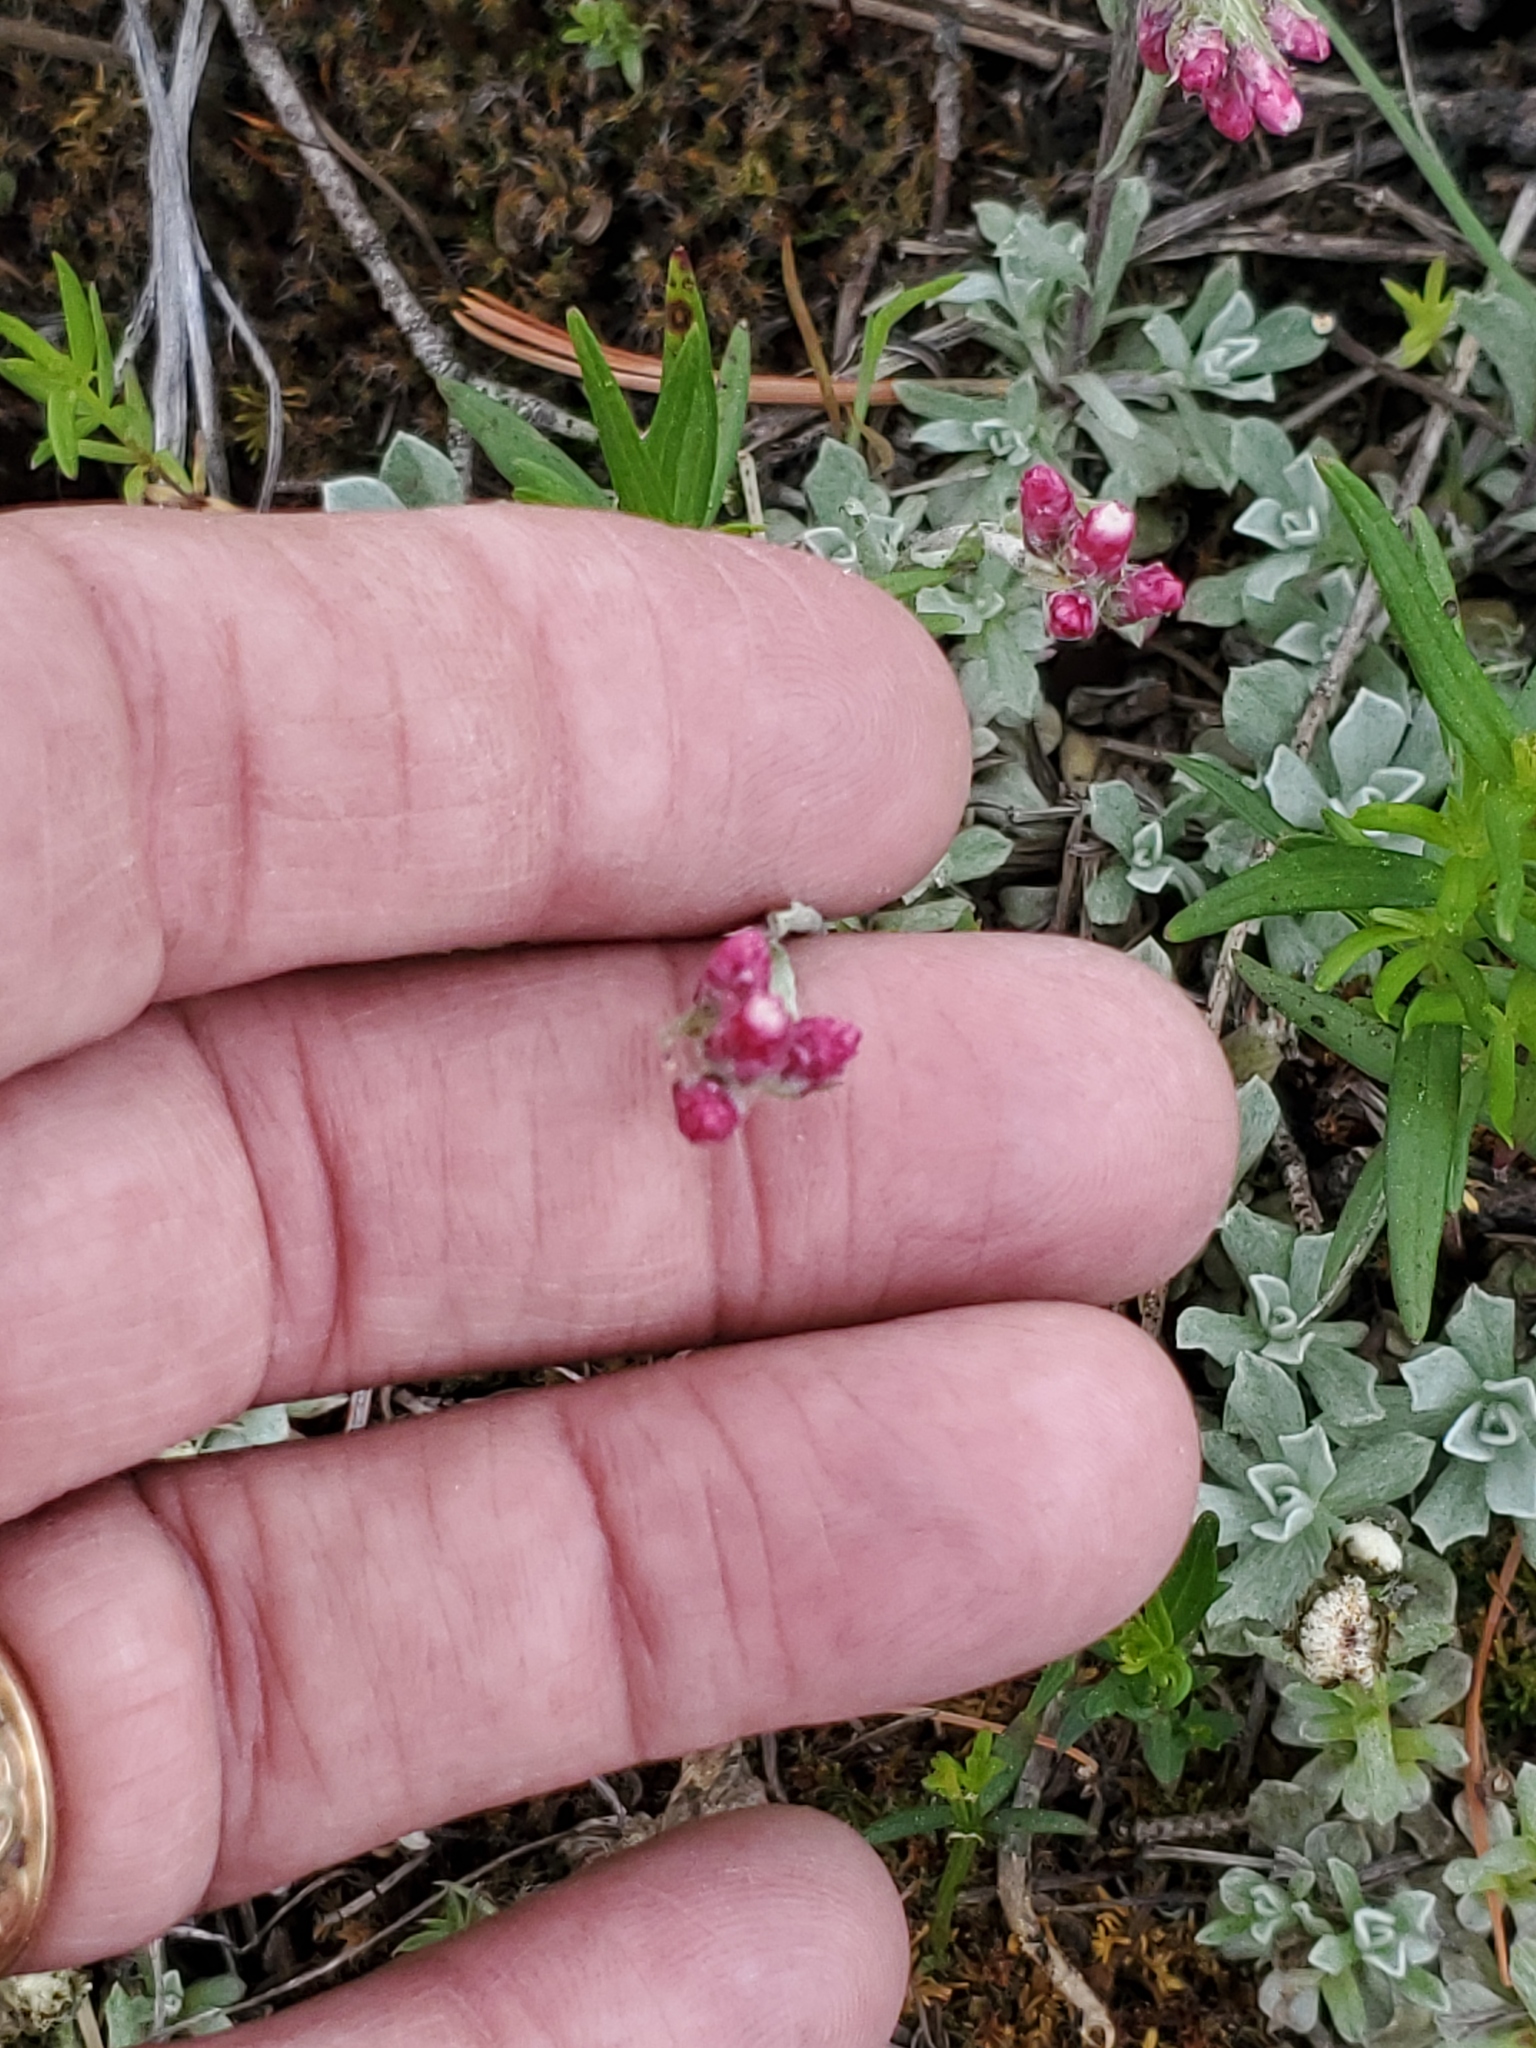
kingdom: Plantae
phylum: Tracheophyta
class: Magnoliopsida
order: Asterales
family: Asteraceae
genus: Antennaria
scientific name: Antennaria rosea
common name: Rosy pussytoes
